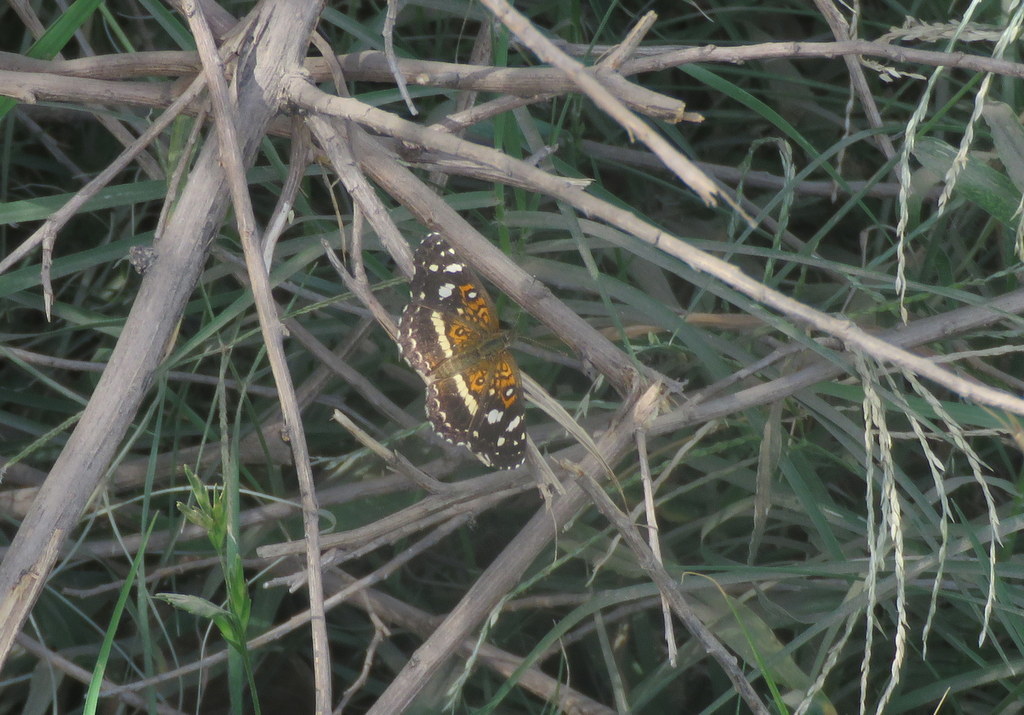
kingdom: Animalia
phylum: Arthropoda
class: Insecta
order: Lepidoptera
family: Nymphalidae
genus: Ortilia
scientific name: Ortilia ithra
